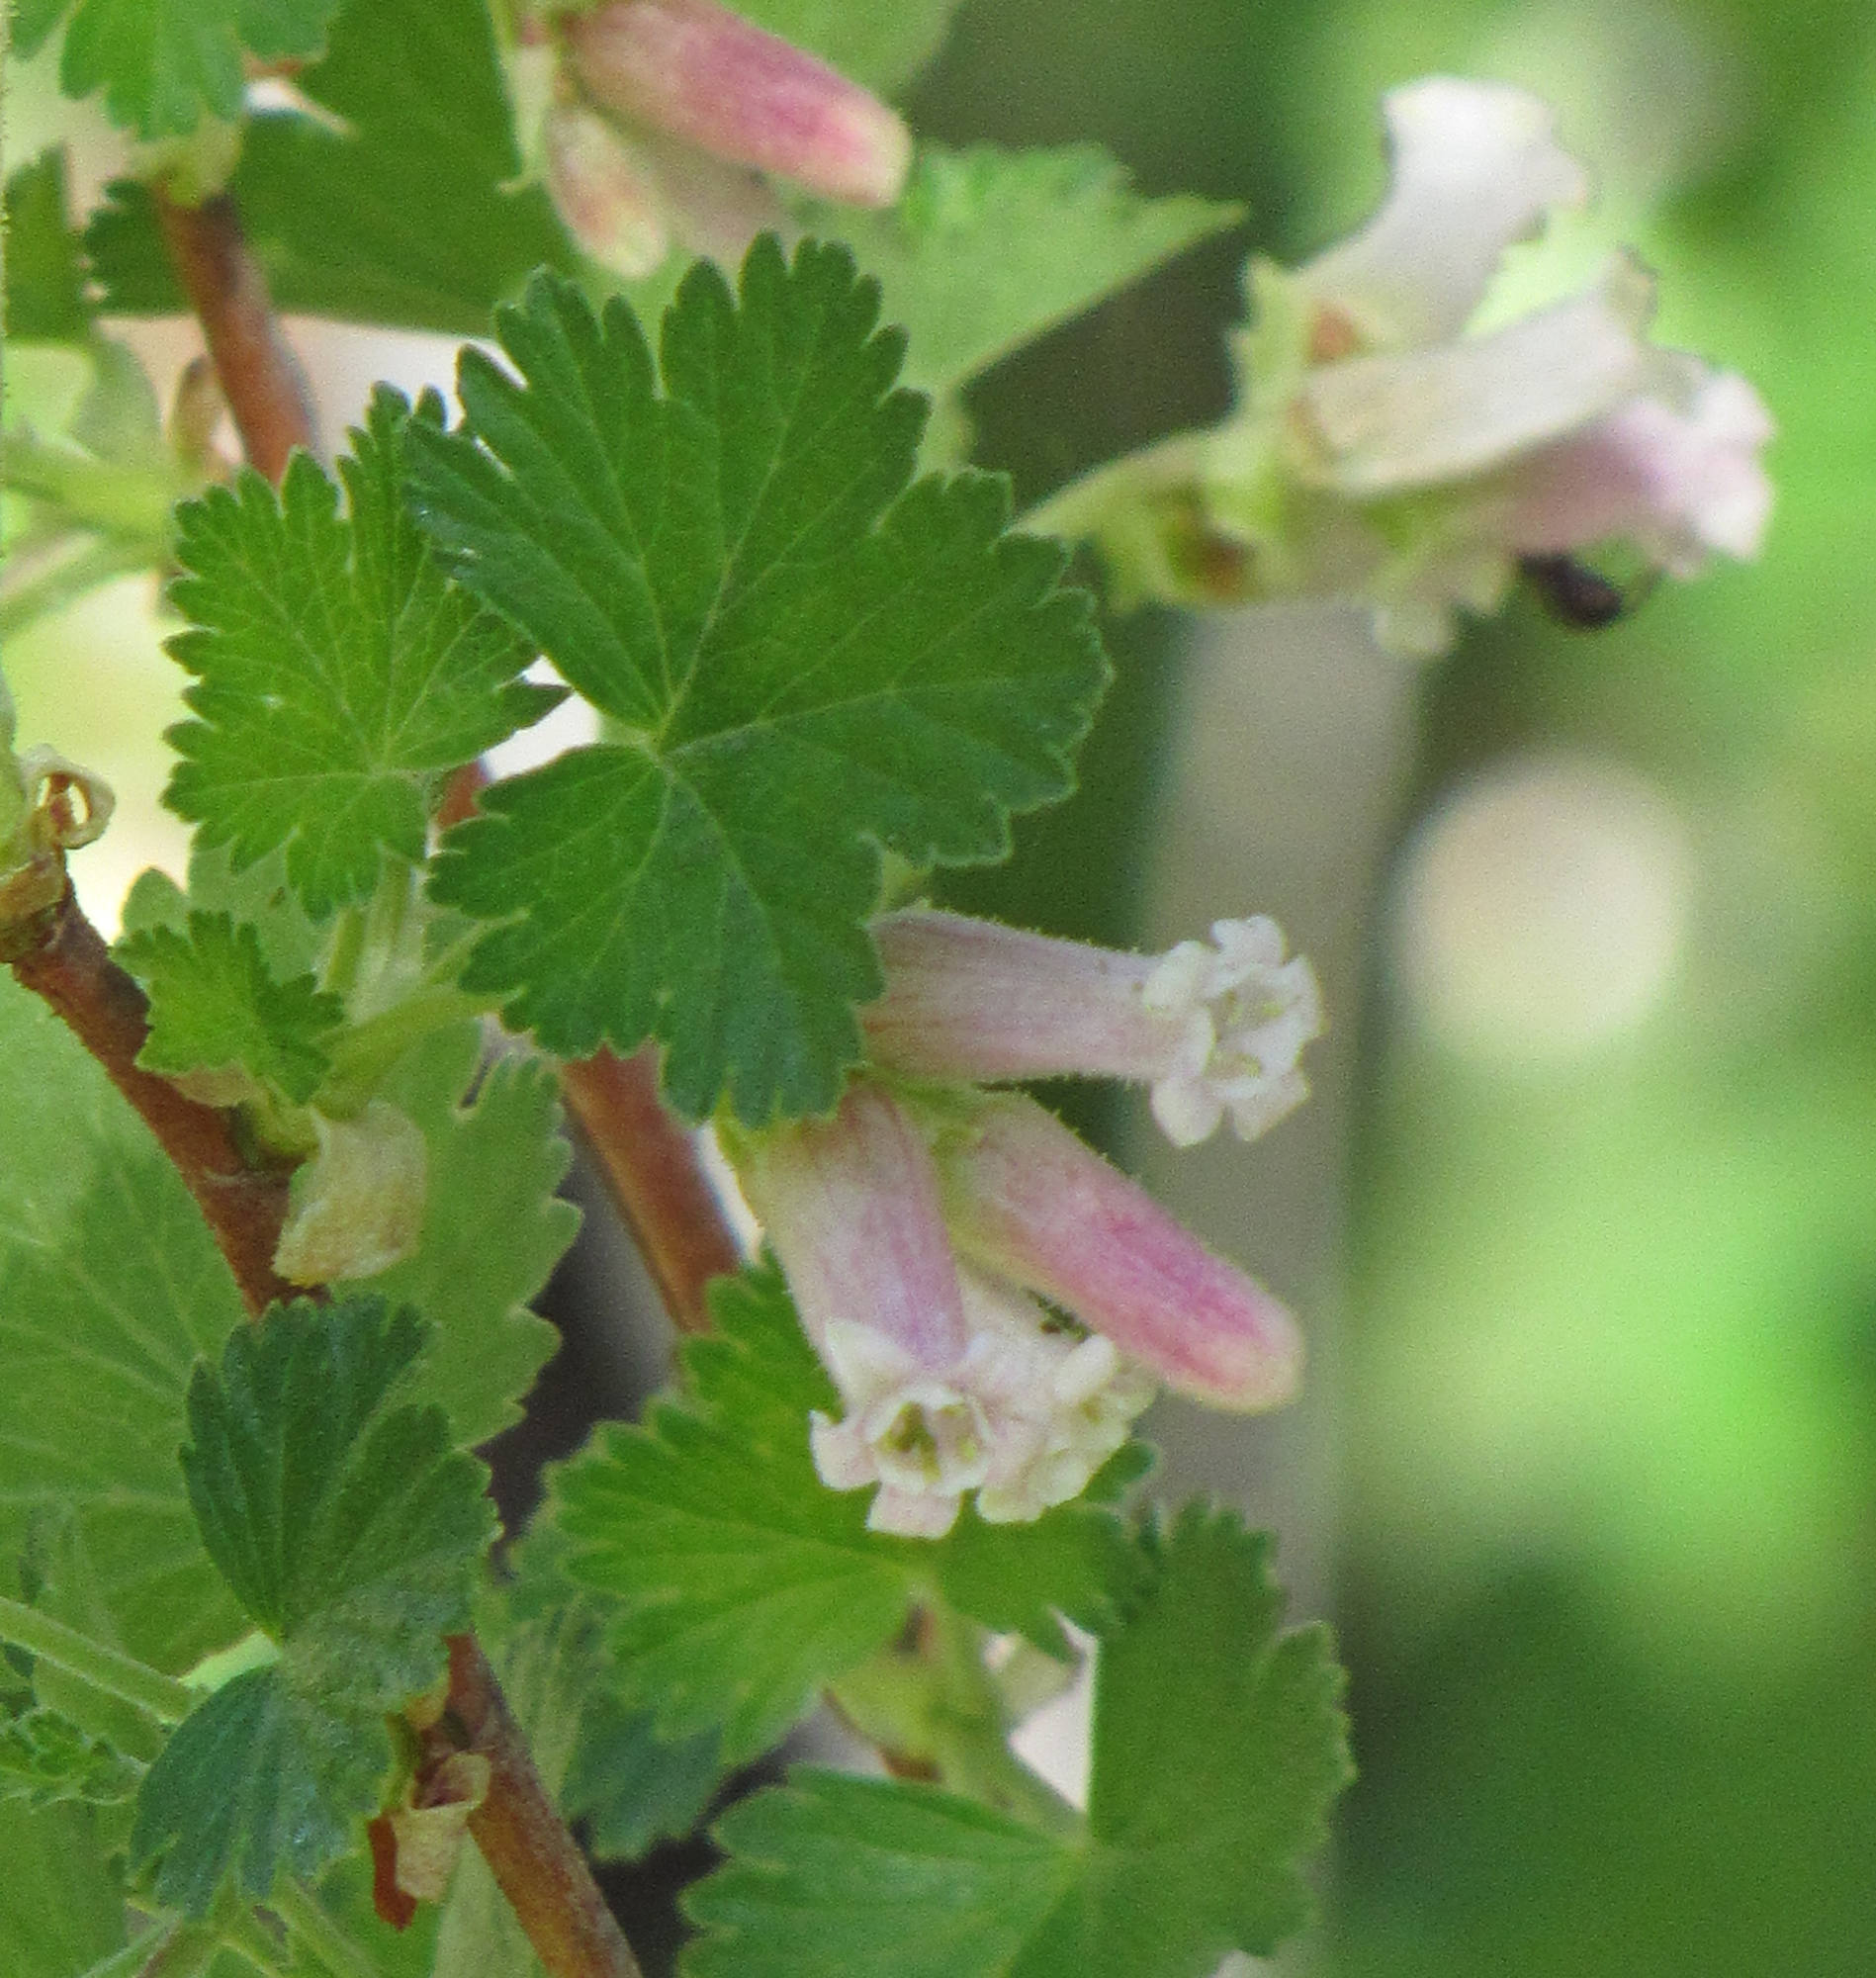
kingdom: Plantae
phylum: Tracheophyta
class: Magnoliopsida
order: Saxifragales
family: Grossulariaceae
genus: Ribes
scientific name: Ribes cereum
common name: Wax currant
